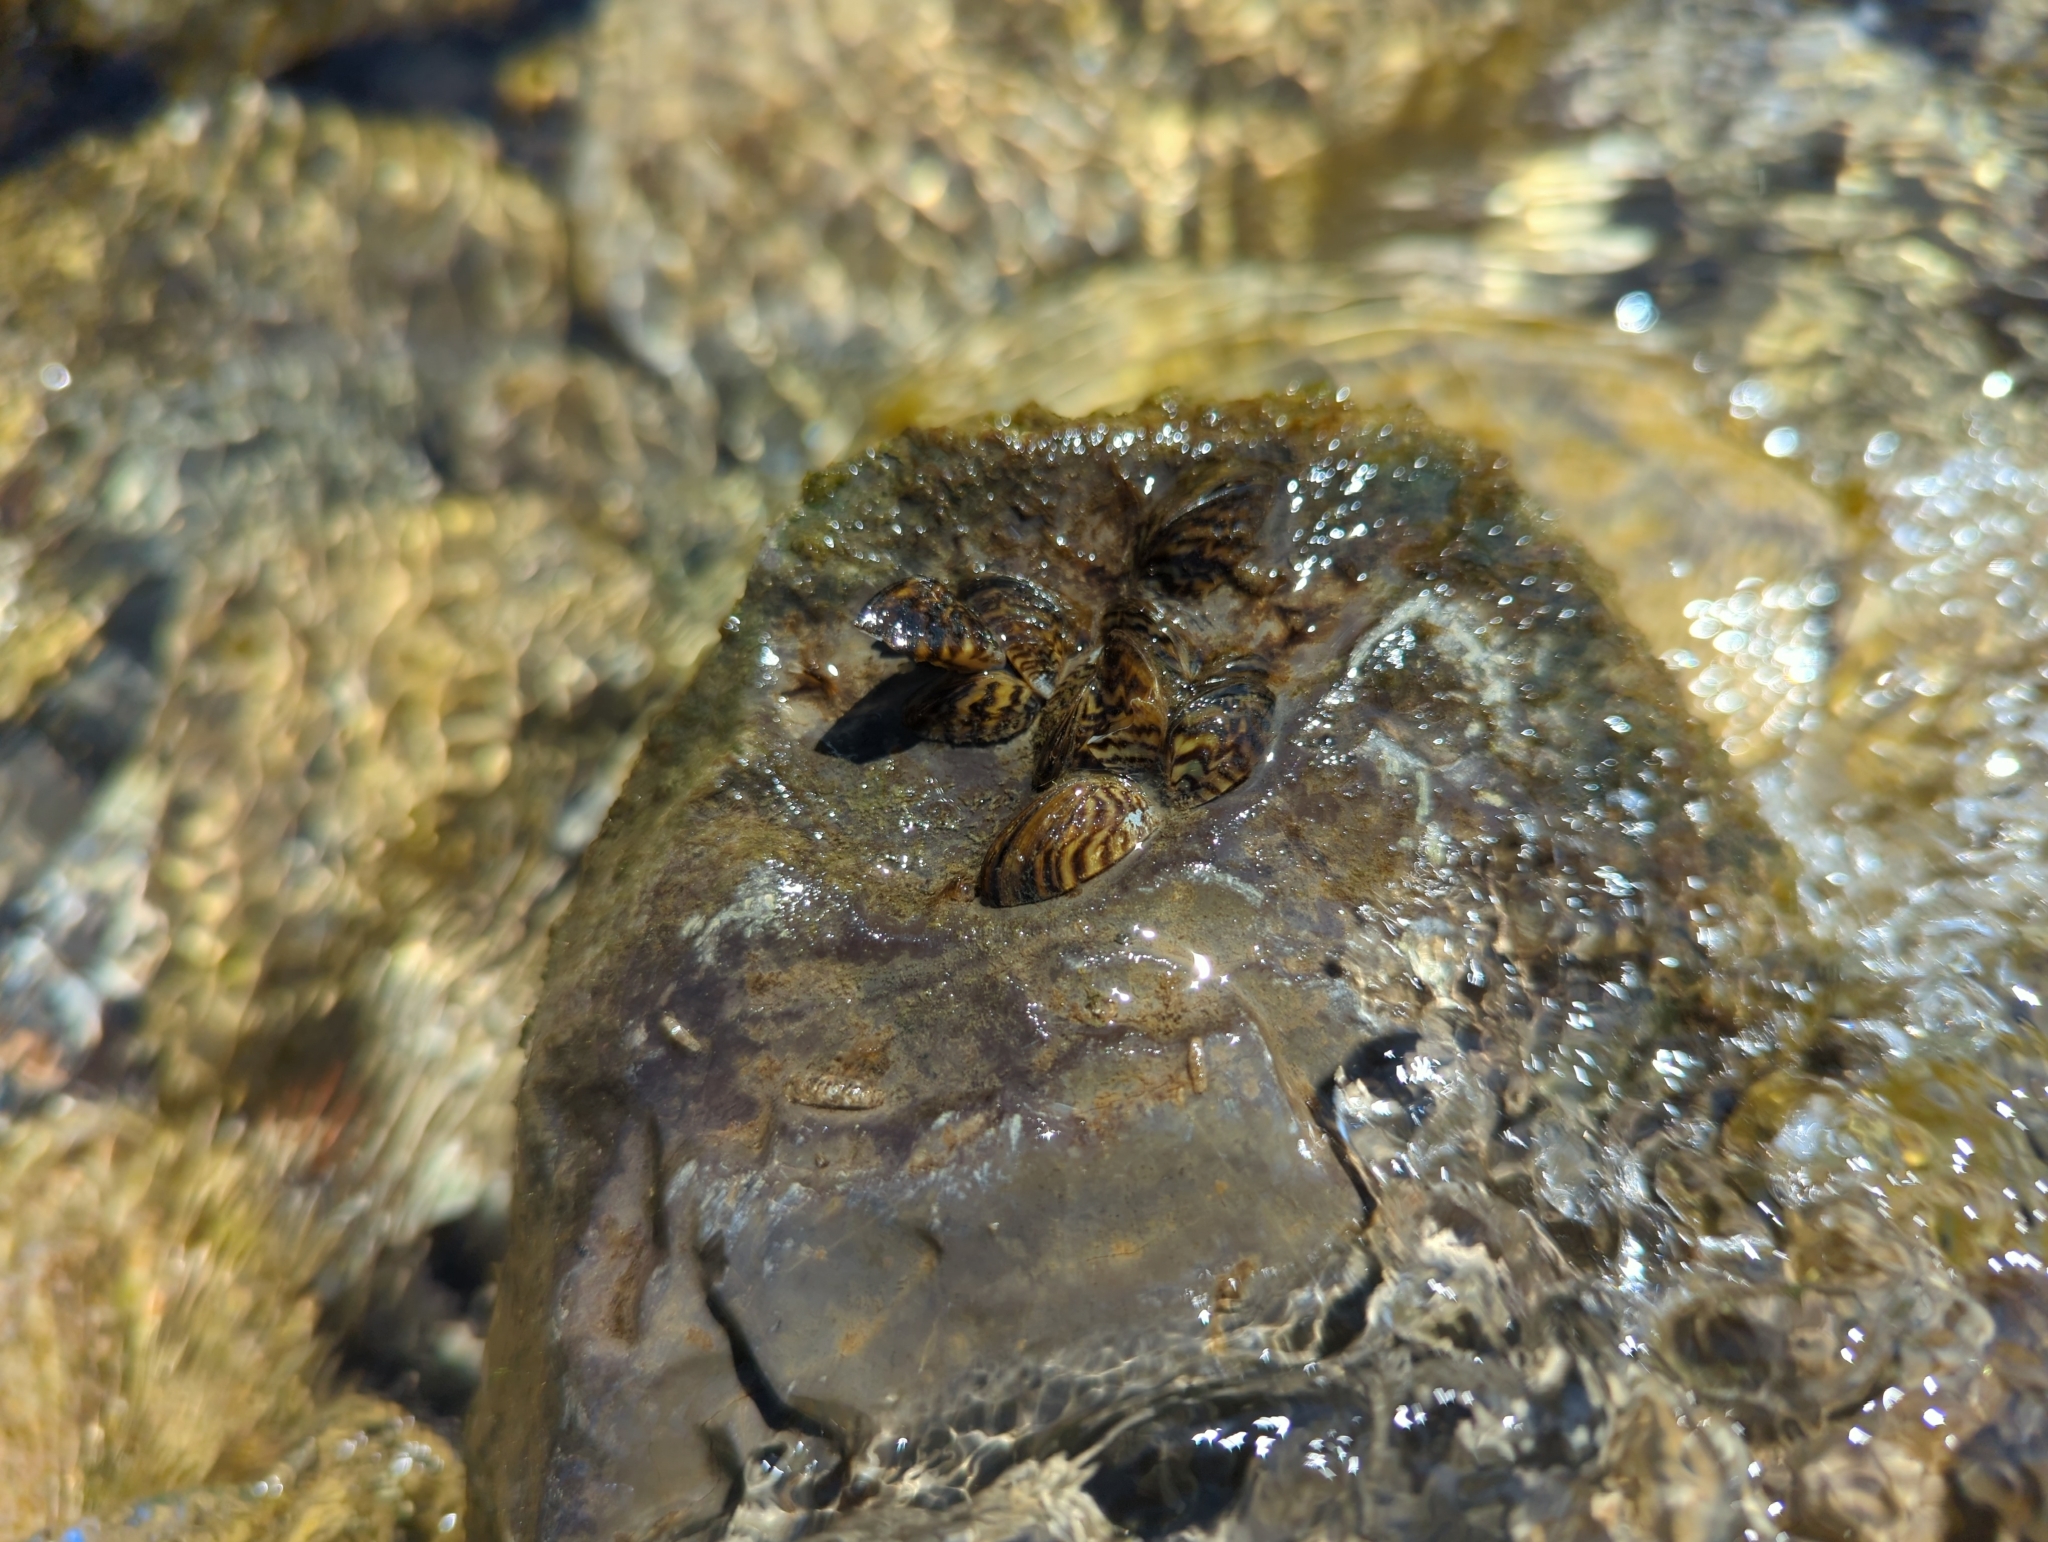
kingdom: Animalia
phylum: Mollusca
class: Bivalvia
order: Myida
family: Dreissenidae
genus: Dreissena
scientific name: Dreissena polymorpha
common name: Zebra mussel
